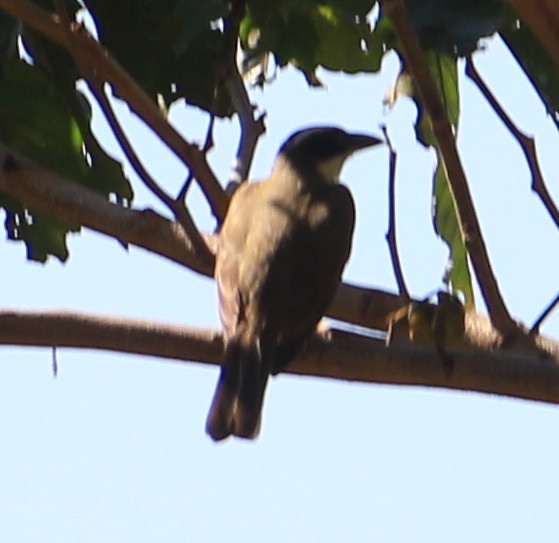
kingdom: Animalia
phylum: Chordata
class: Aves
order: Passeriformes
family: Tyrannidae
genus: Megarynchus
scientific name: Megarynchus pitangua
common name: Boat-billed flycatcher
